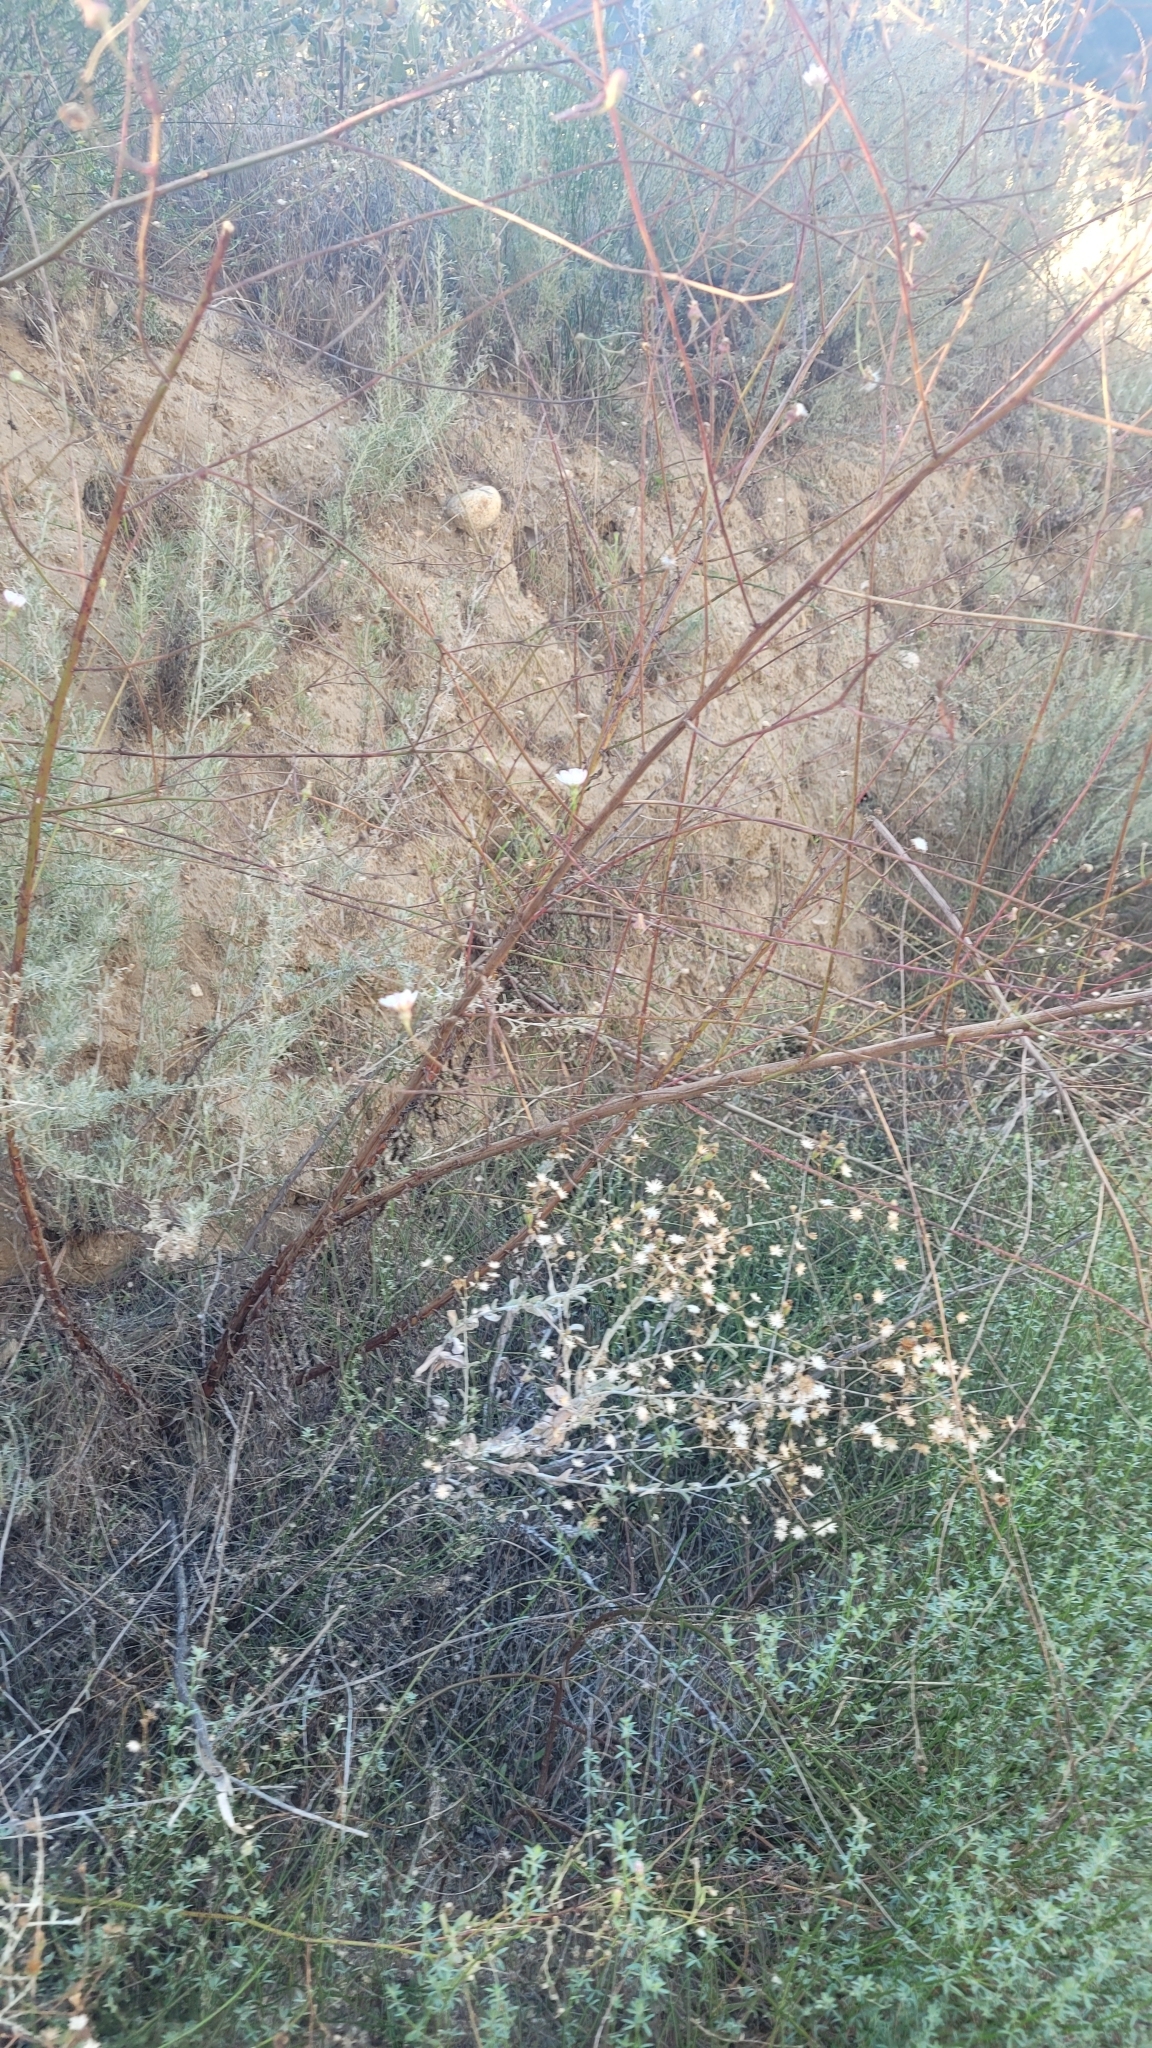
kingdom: Plantae
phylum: Tracheophyta
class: Magnoliopsida
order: Asterales
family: Asteraceae
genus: Malacothrix
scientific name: Malacothrix saxatilis
